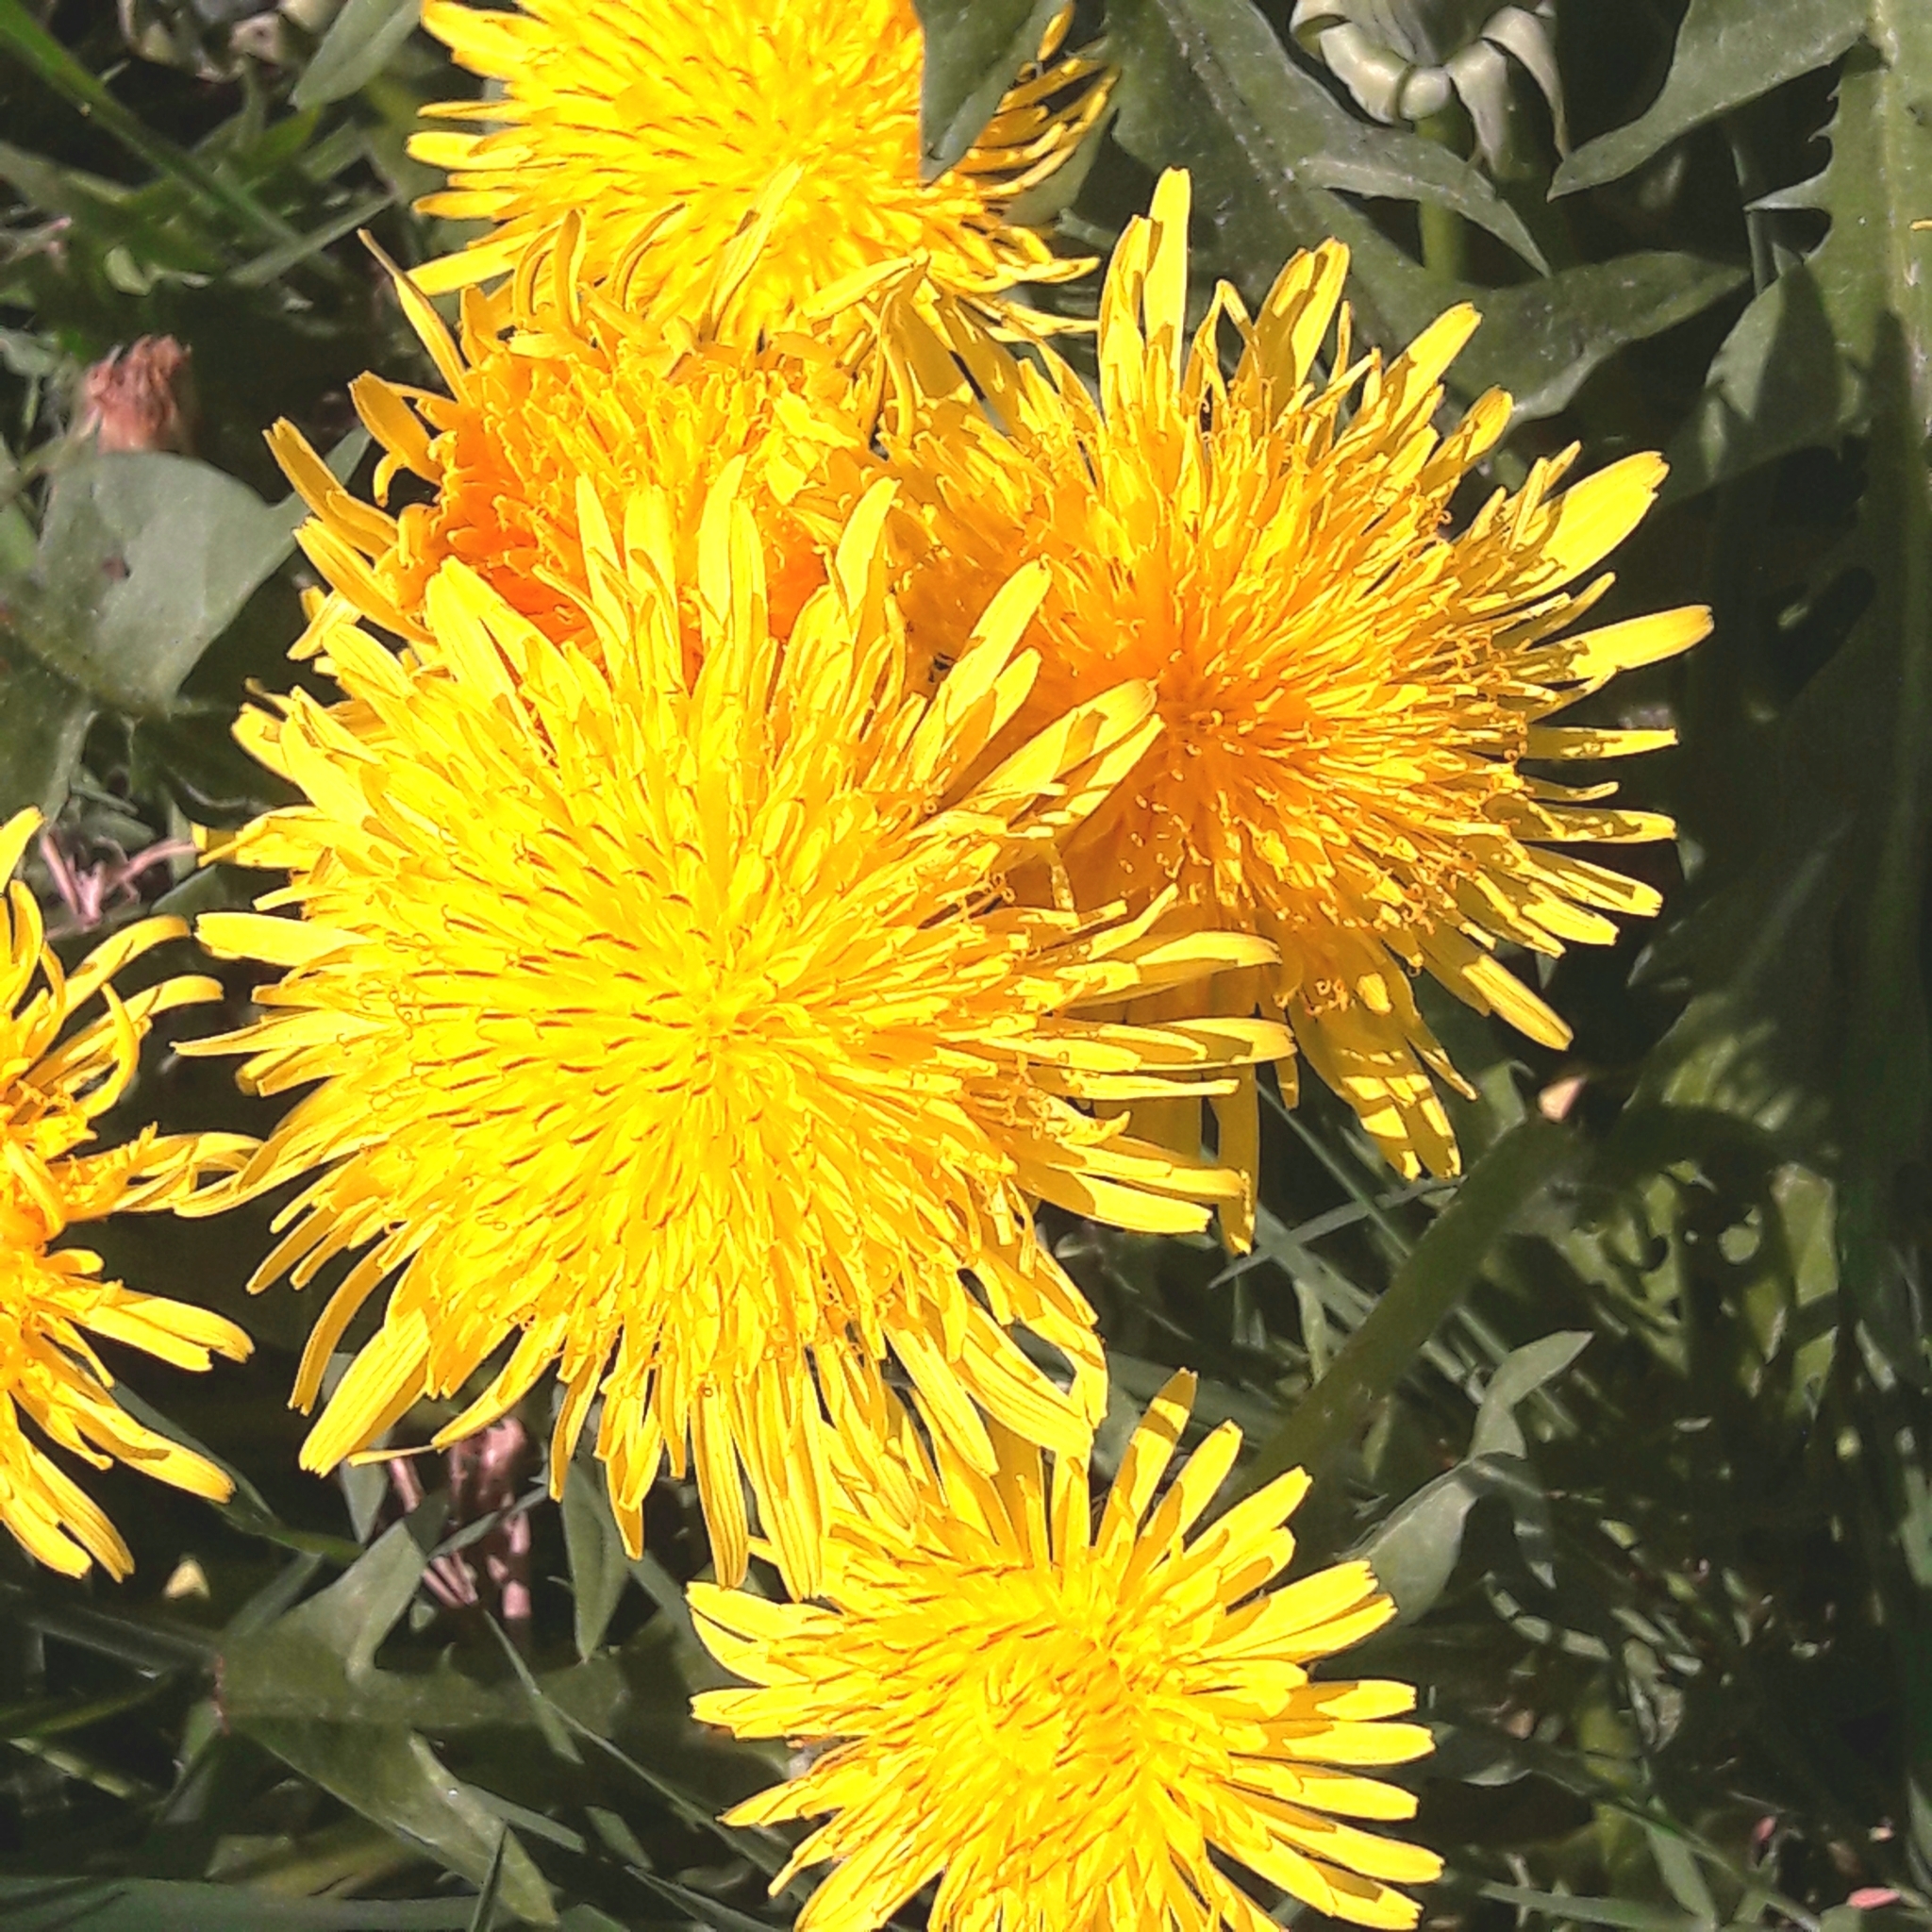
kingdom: Plantae
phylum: Tracheophyta
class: Magnoliopsida
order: Asterales
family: Asteraceae
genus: Taraxacum
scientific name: Taraxacum officinale
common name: Common dandelion
